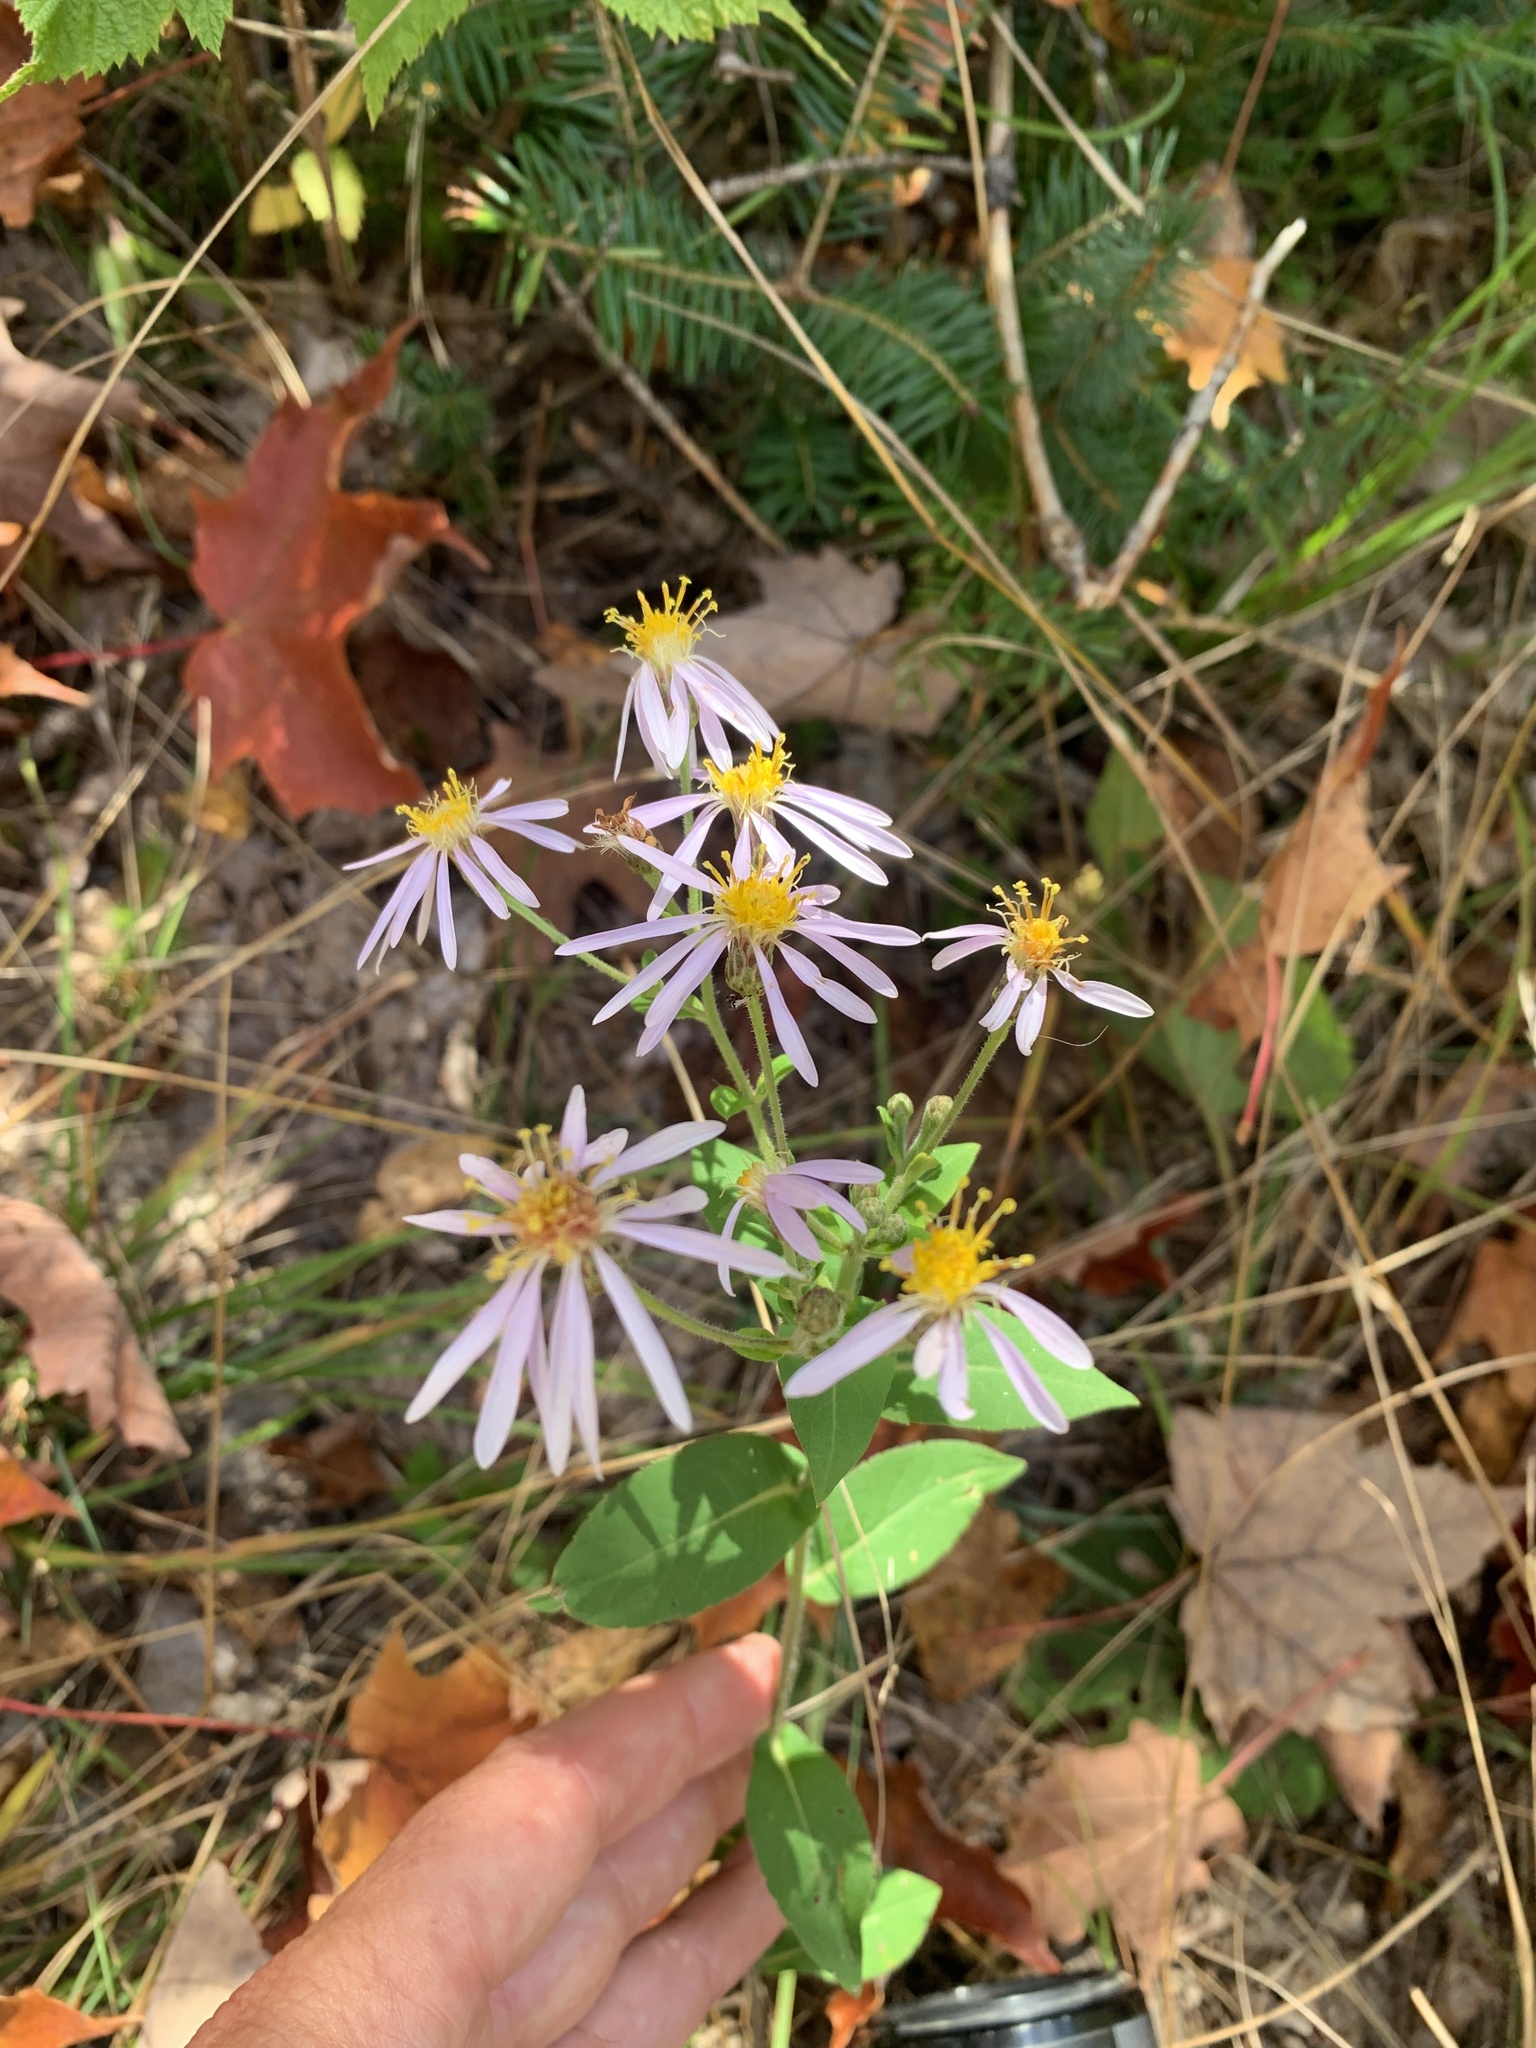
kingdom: Plantae
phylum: Tracheophyta
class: Magnoliopsida
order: Asterales
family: Asteraceae
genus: Eurybia
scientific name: Eurybia macrophylla
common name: Big-leaved aster
